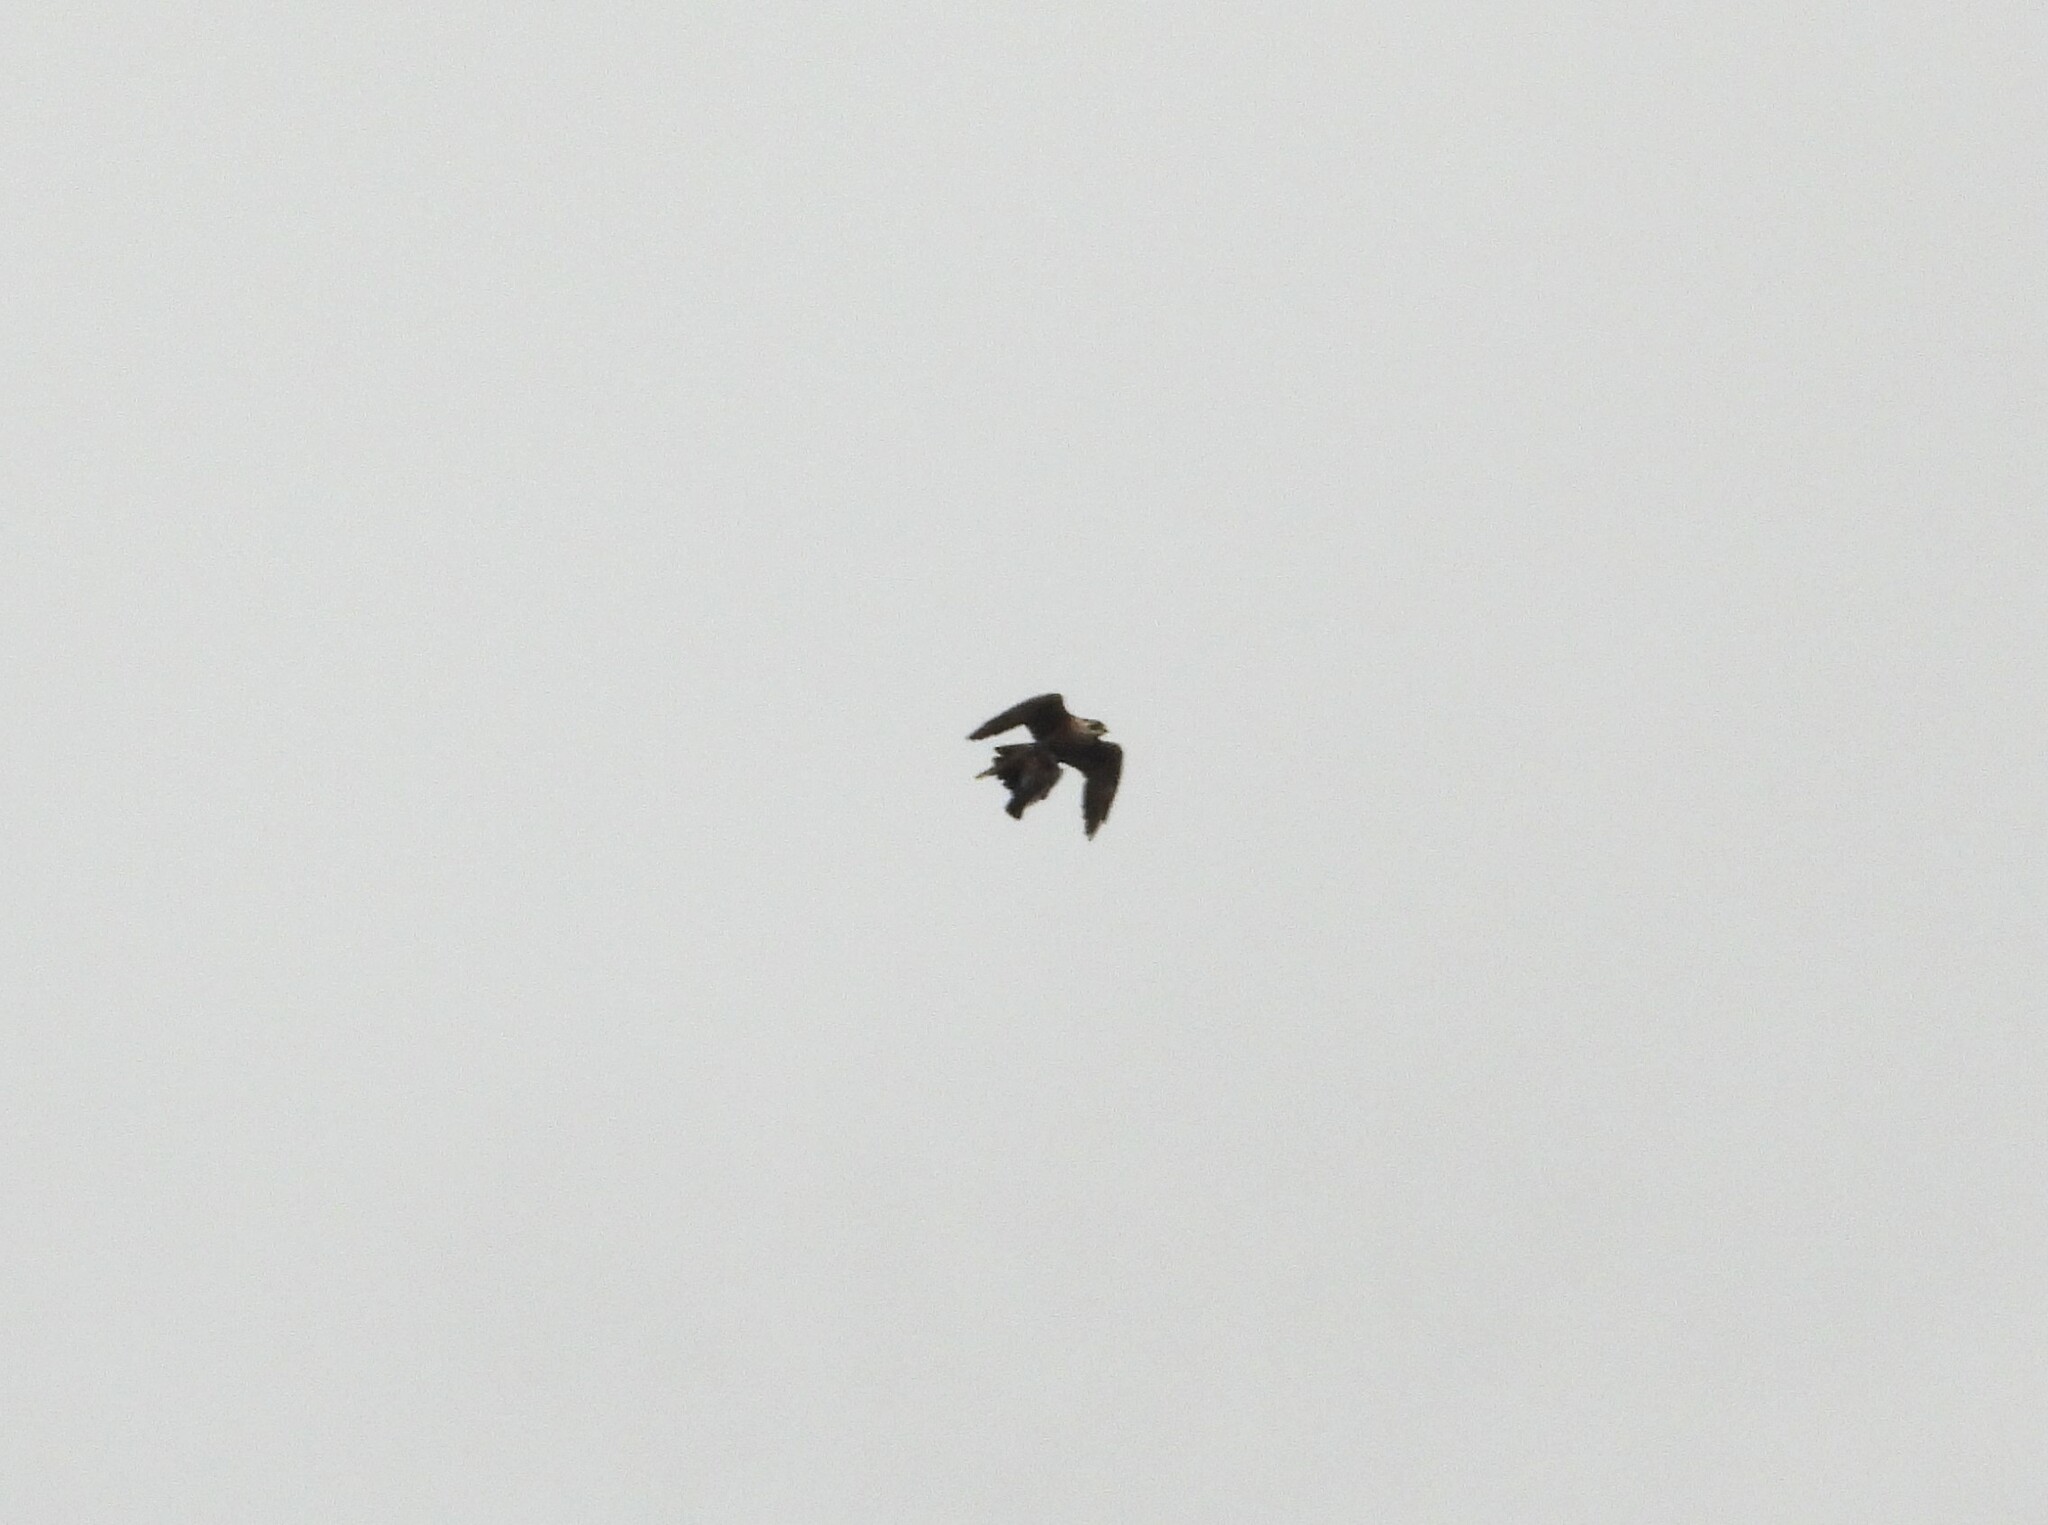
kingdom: Animalia
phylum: Chordata
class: Aves
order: Falconiformes
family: Falconidae
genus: Falco
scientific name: Falco peregrinus
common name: Peregrine falcon
